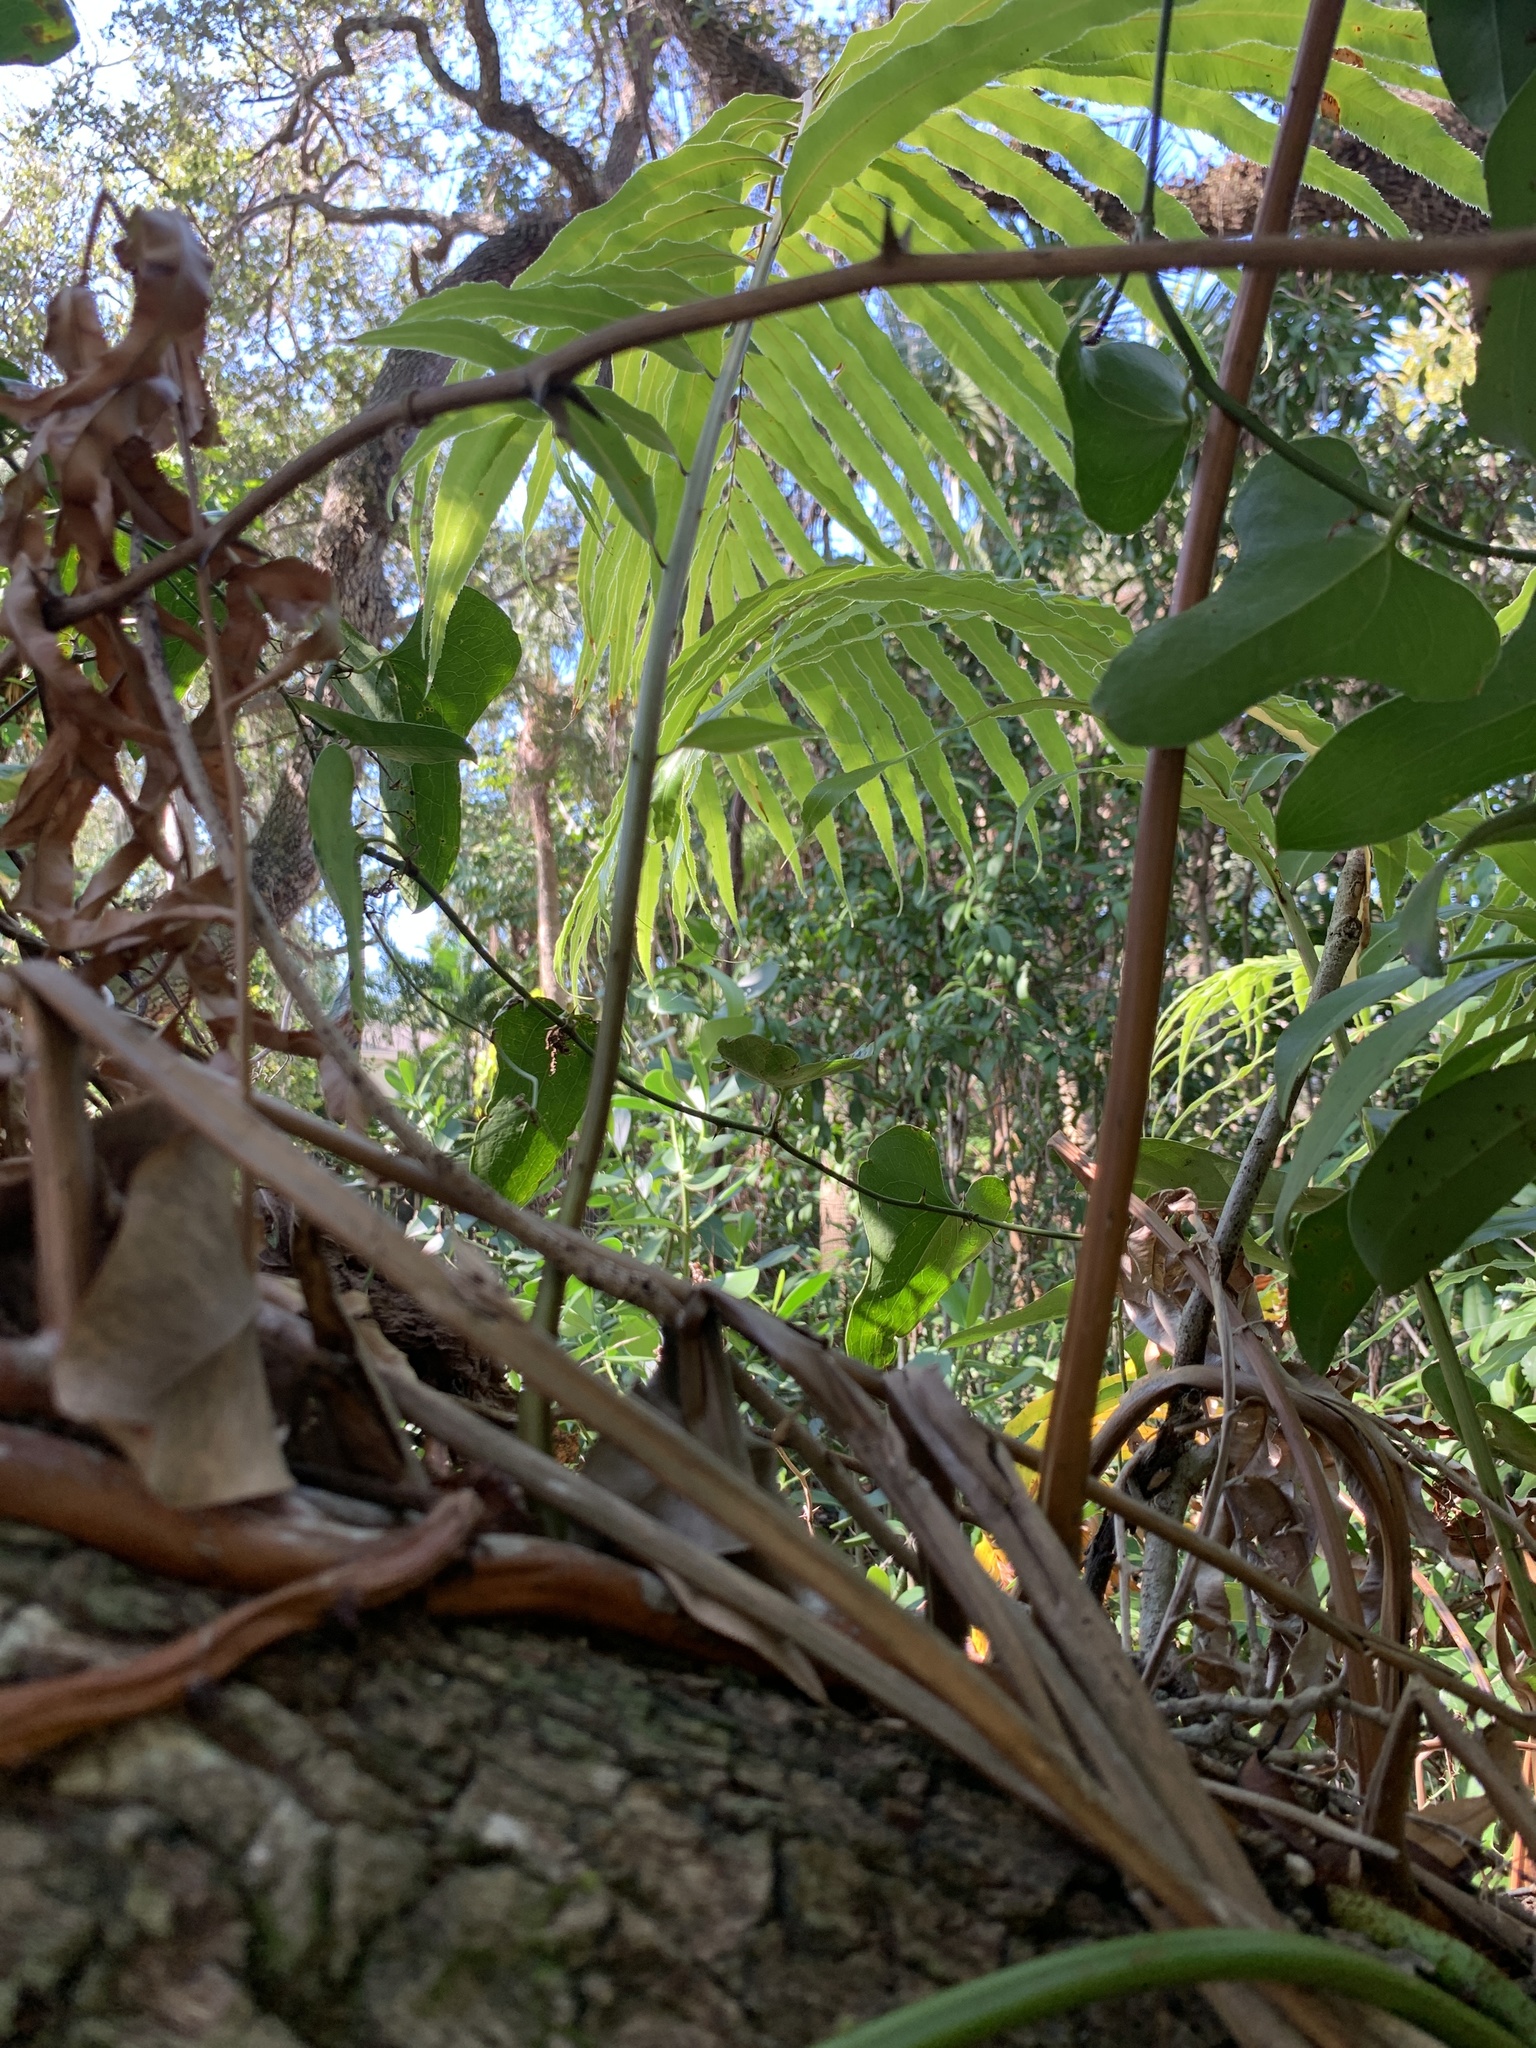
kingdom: Plantae
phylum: Tracheophyta
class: Polypodiopsida
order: Polypodiales
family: Blechnaceae
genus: Stenochlaena
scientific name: Stenochlaena tenuifolia
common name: Giant vine fern
